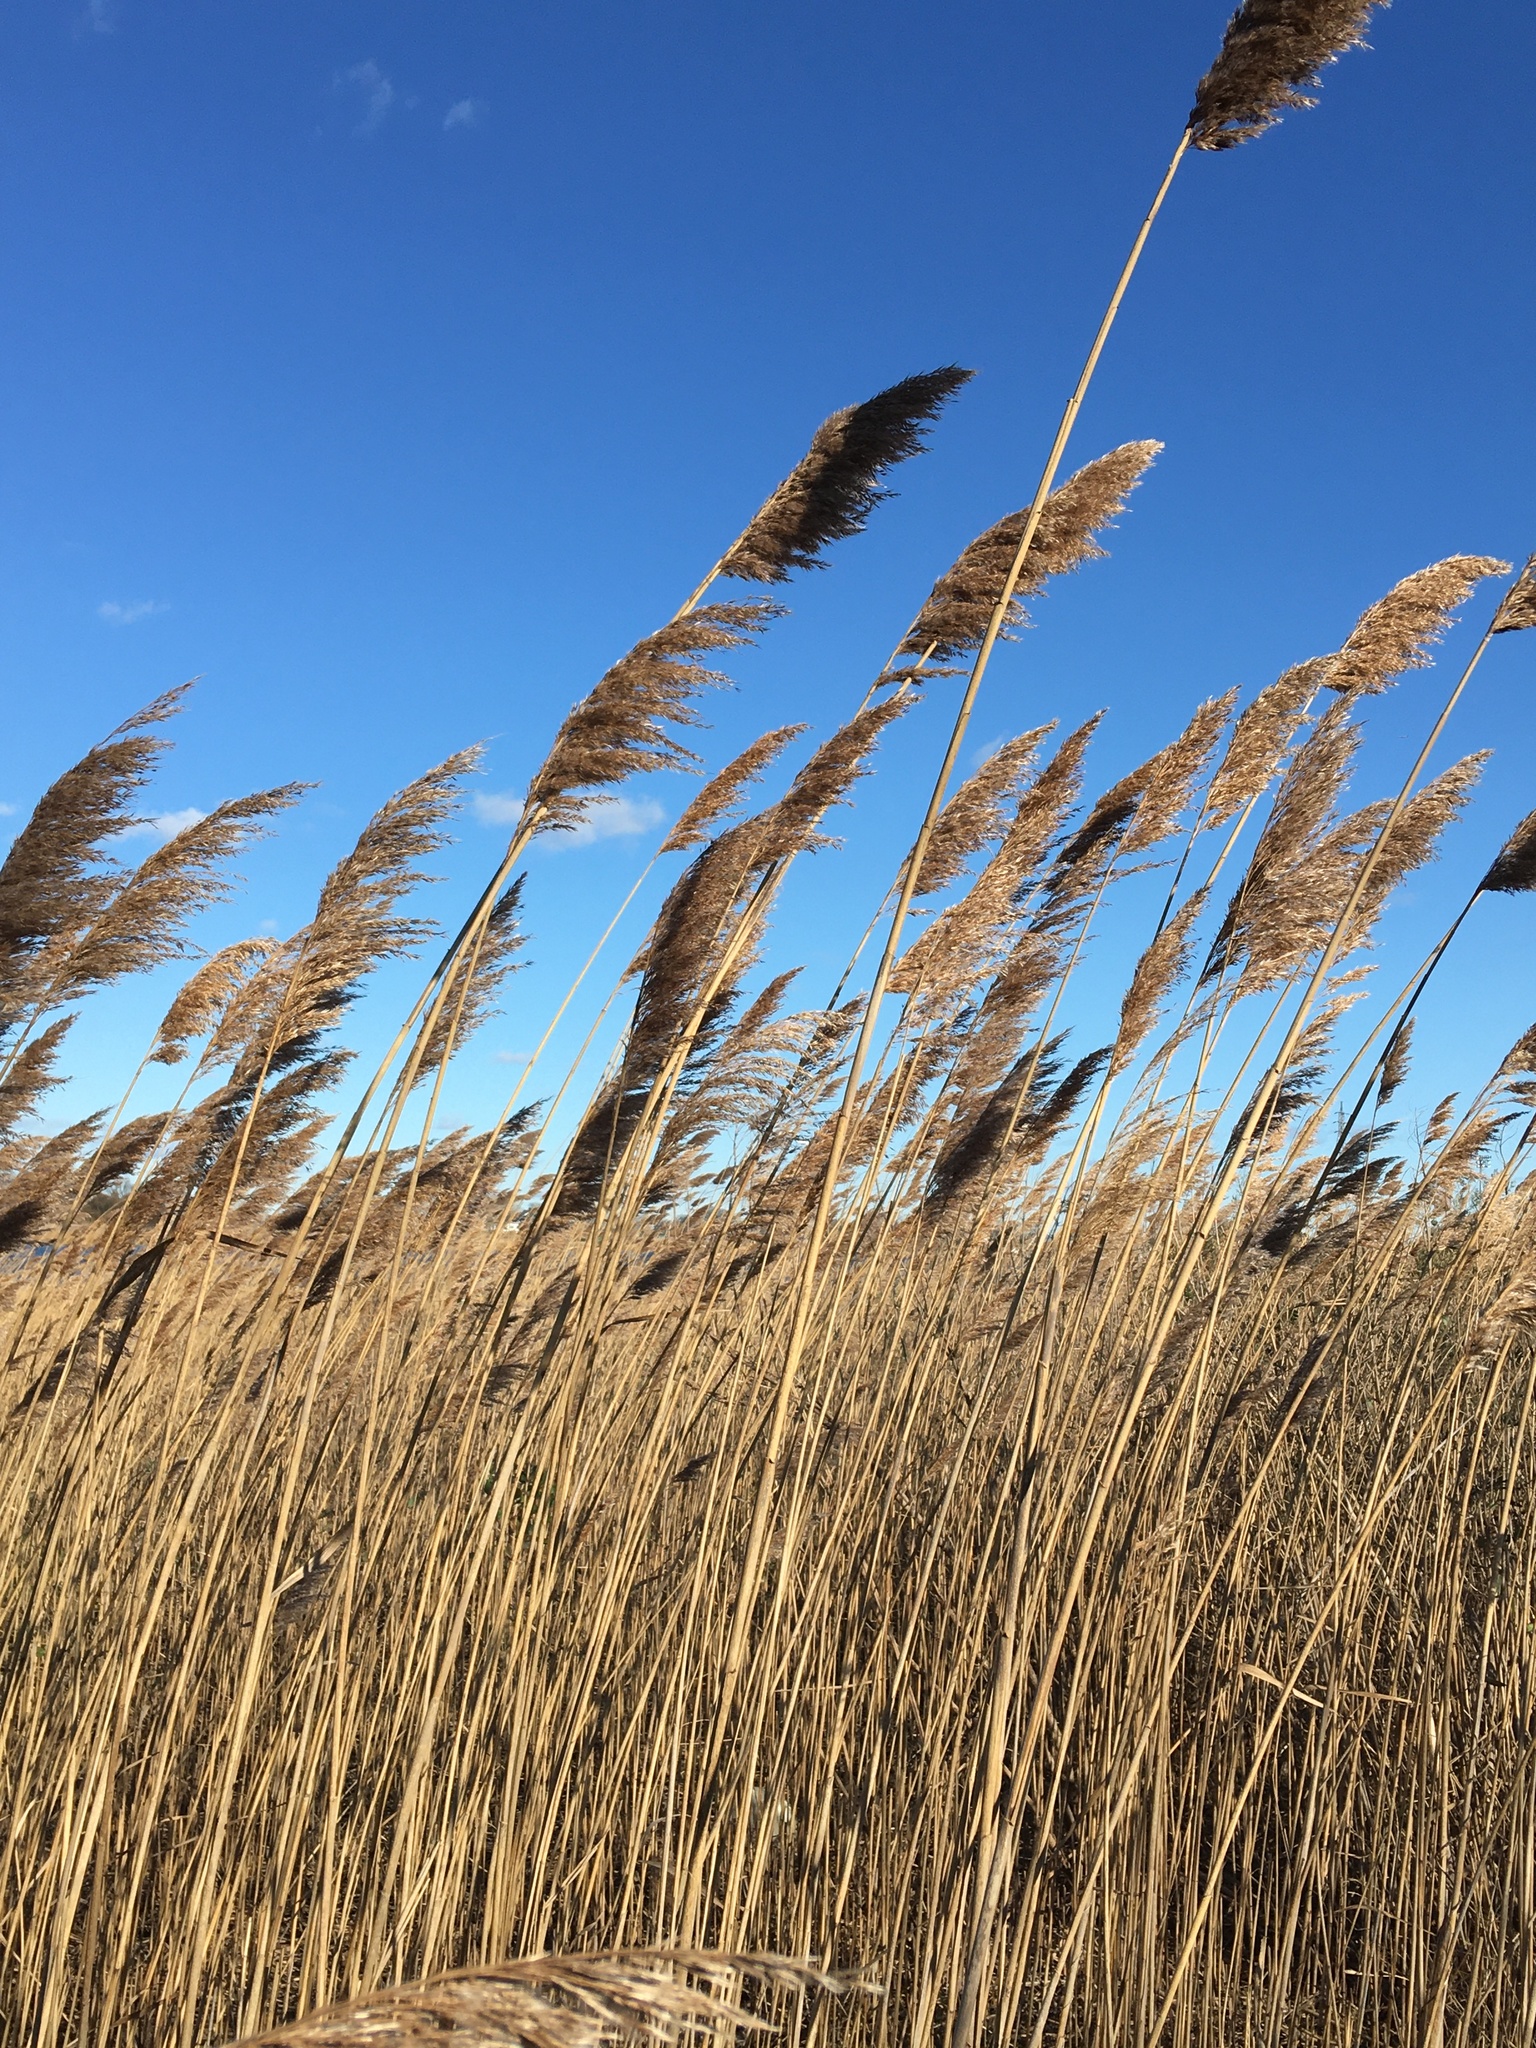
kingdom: Plantae
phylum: Tracheophyta
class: Liliopsida
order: Poales
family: Poaceae
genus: Phragmites
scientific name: Phragmites australis
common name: Common reed
